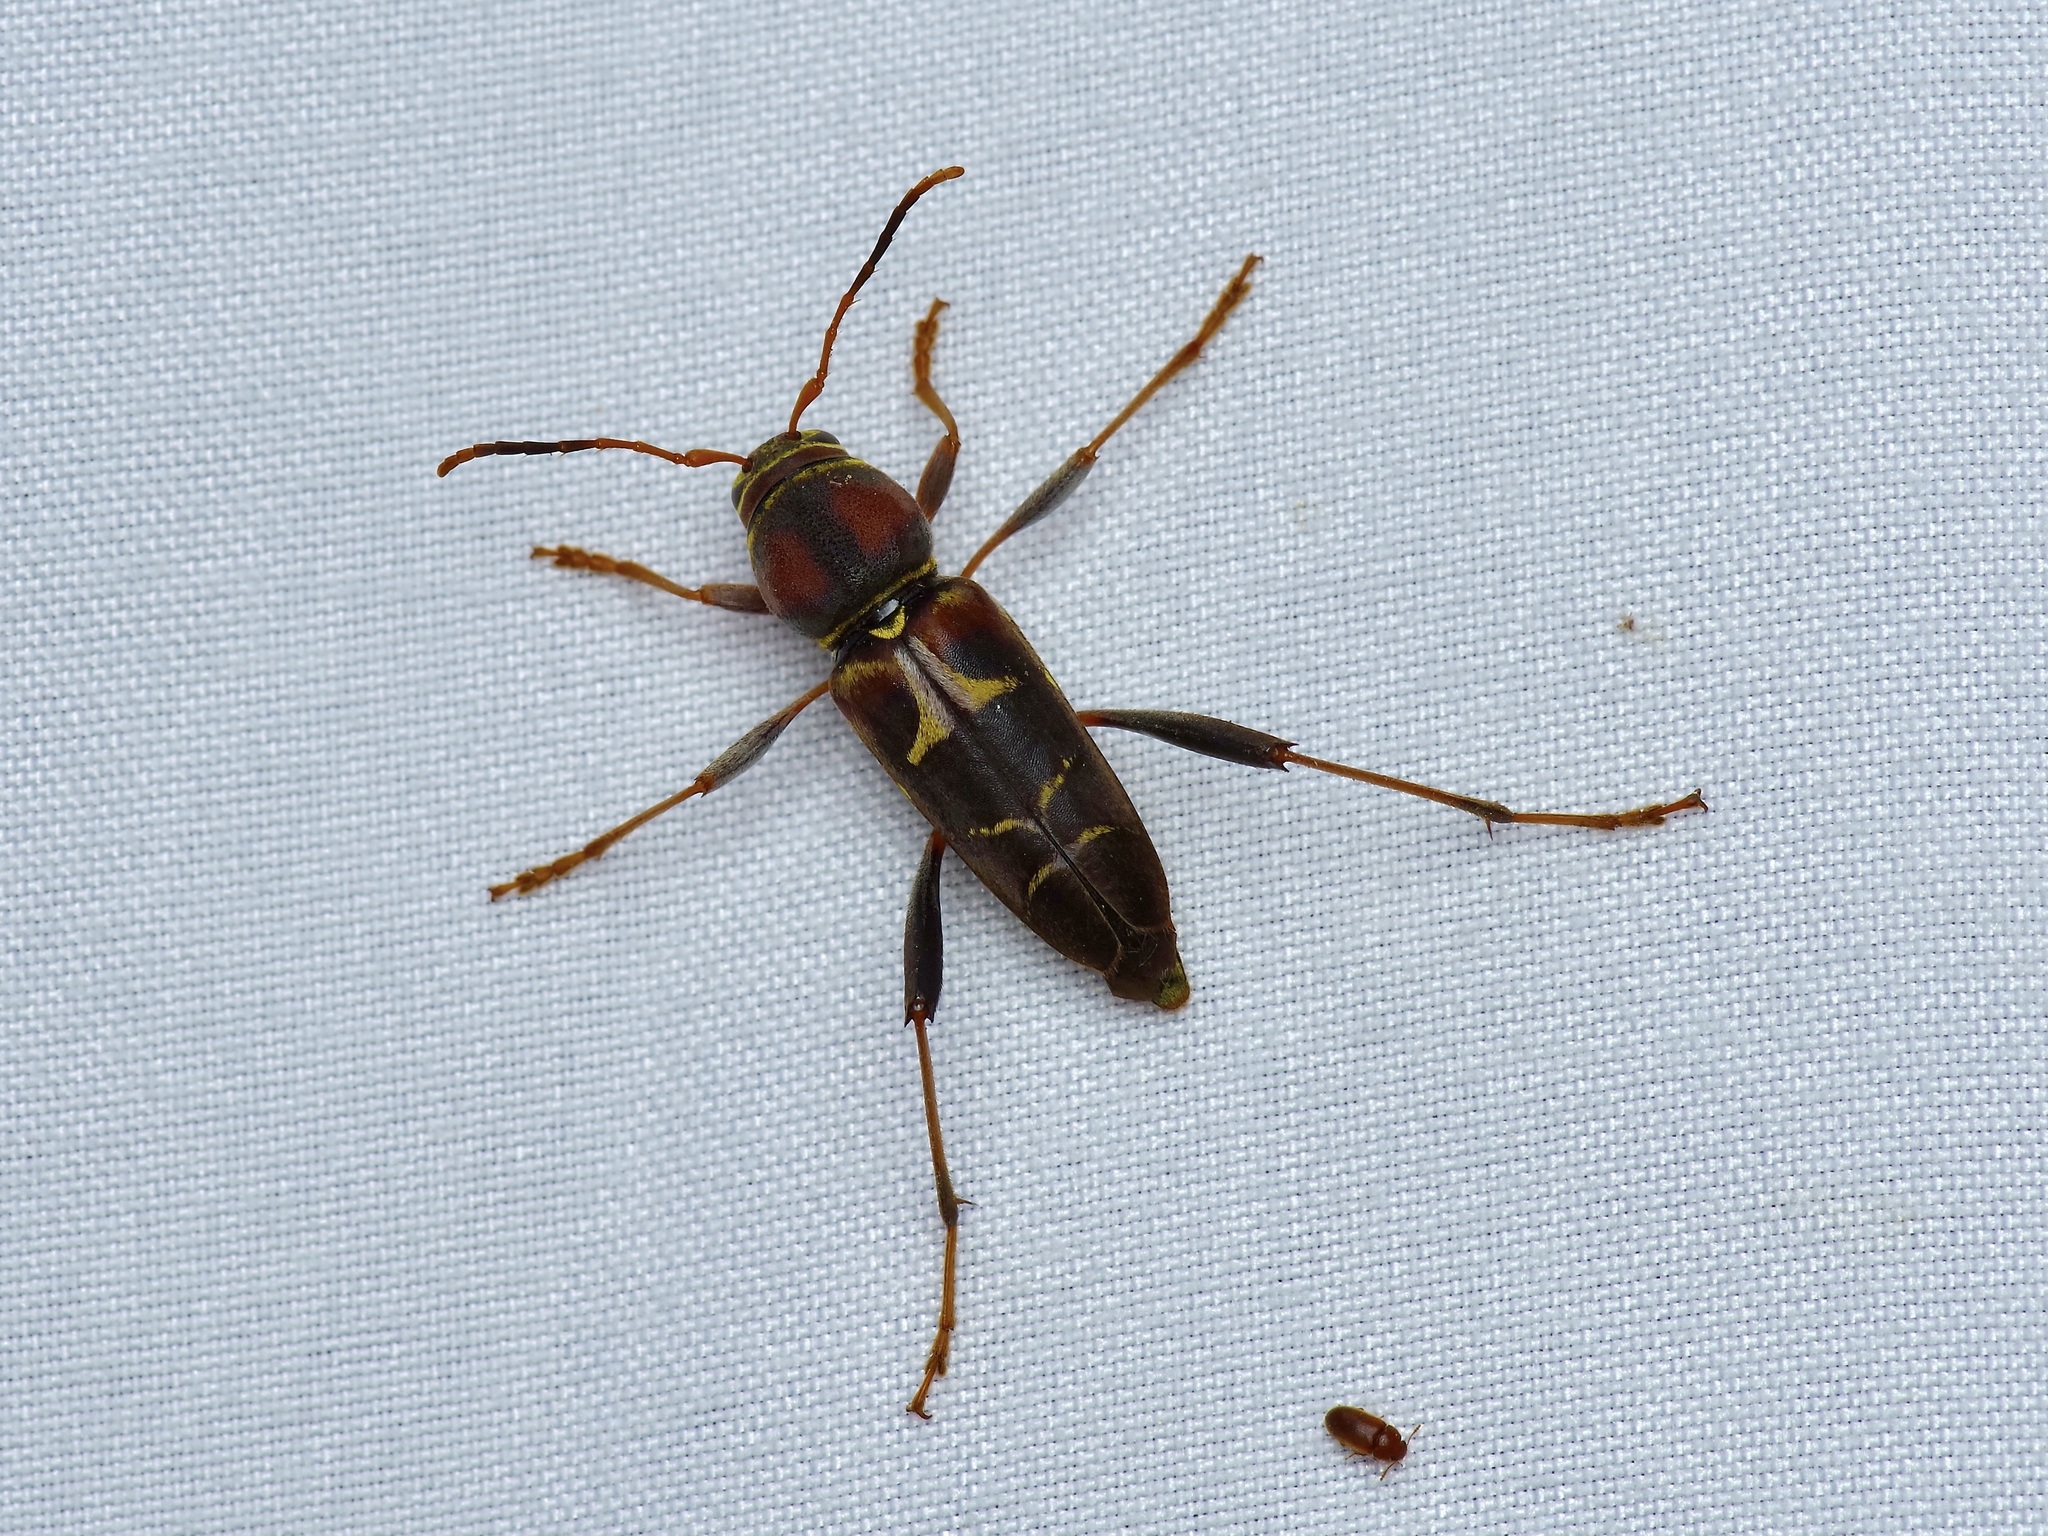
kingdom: Animalia
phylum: Arthropoda
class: Insecta
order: Coleoptera
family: Cerambycidae
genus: Neoclytus
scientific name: Neoclytus mucronatus
